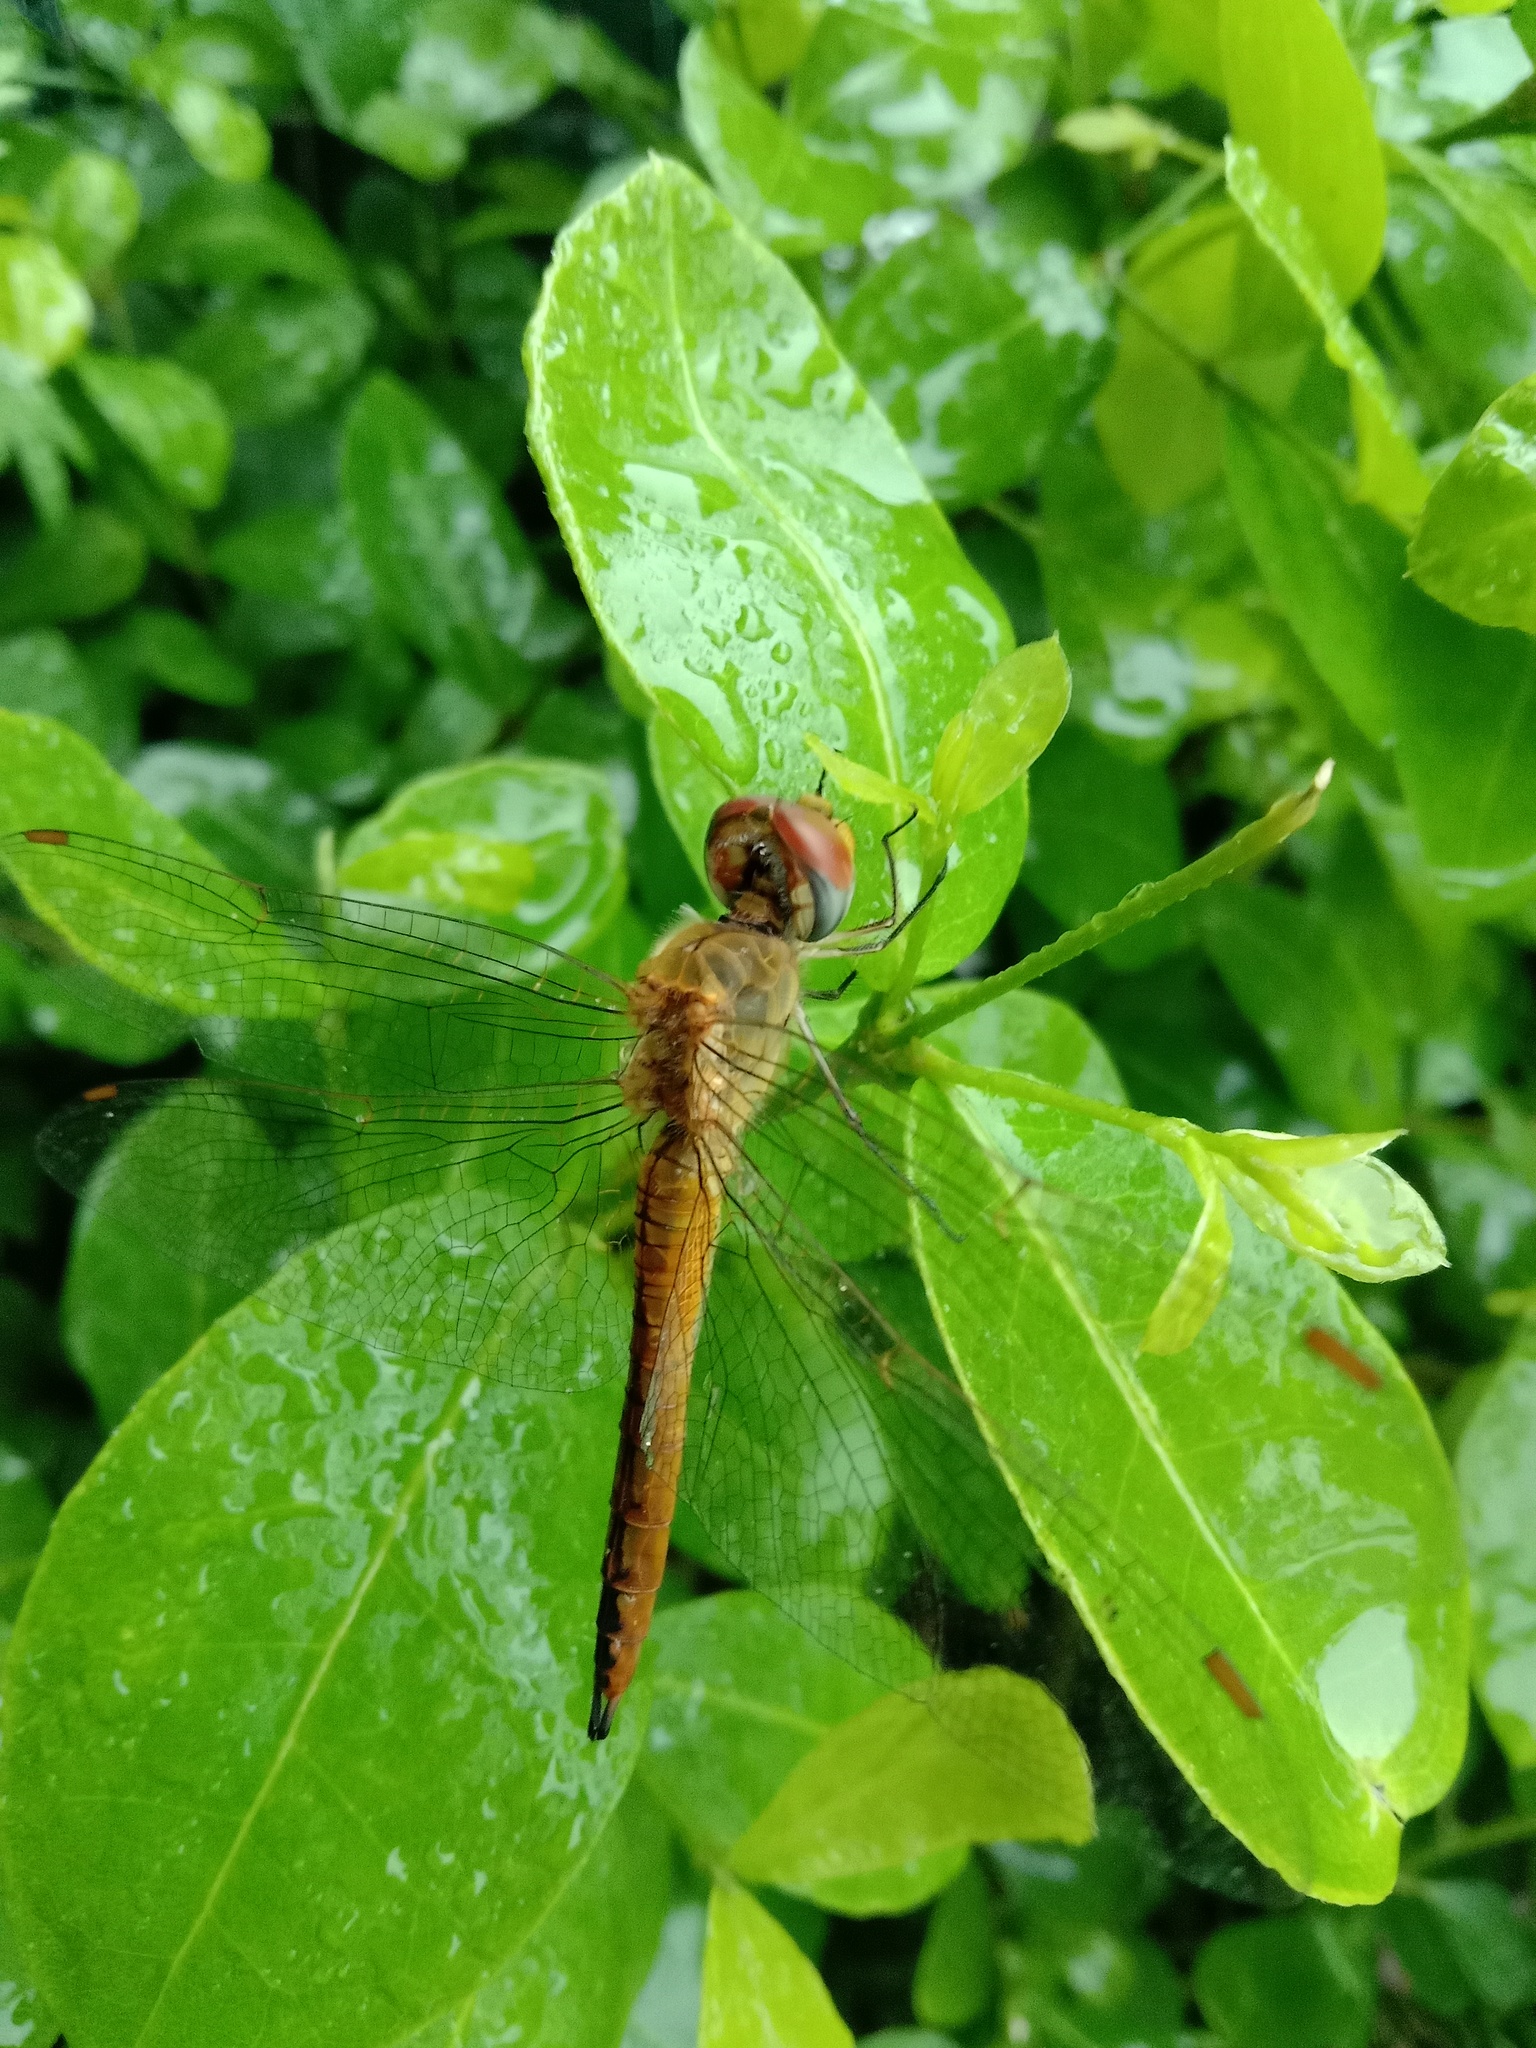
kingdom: Animalia
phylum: Arthropoda
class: Insecta
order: Odonata
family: Libellulidae
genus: Pantala
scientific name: Pantala flavescens
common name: Wandering glider
